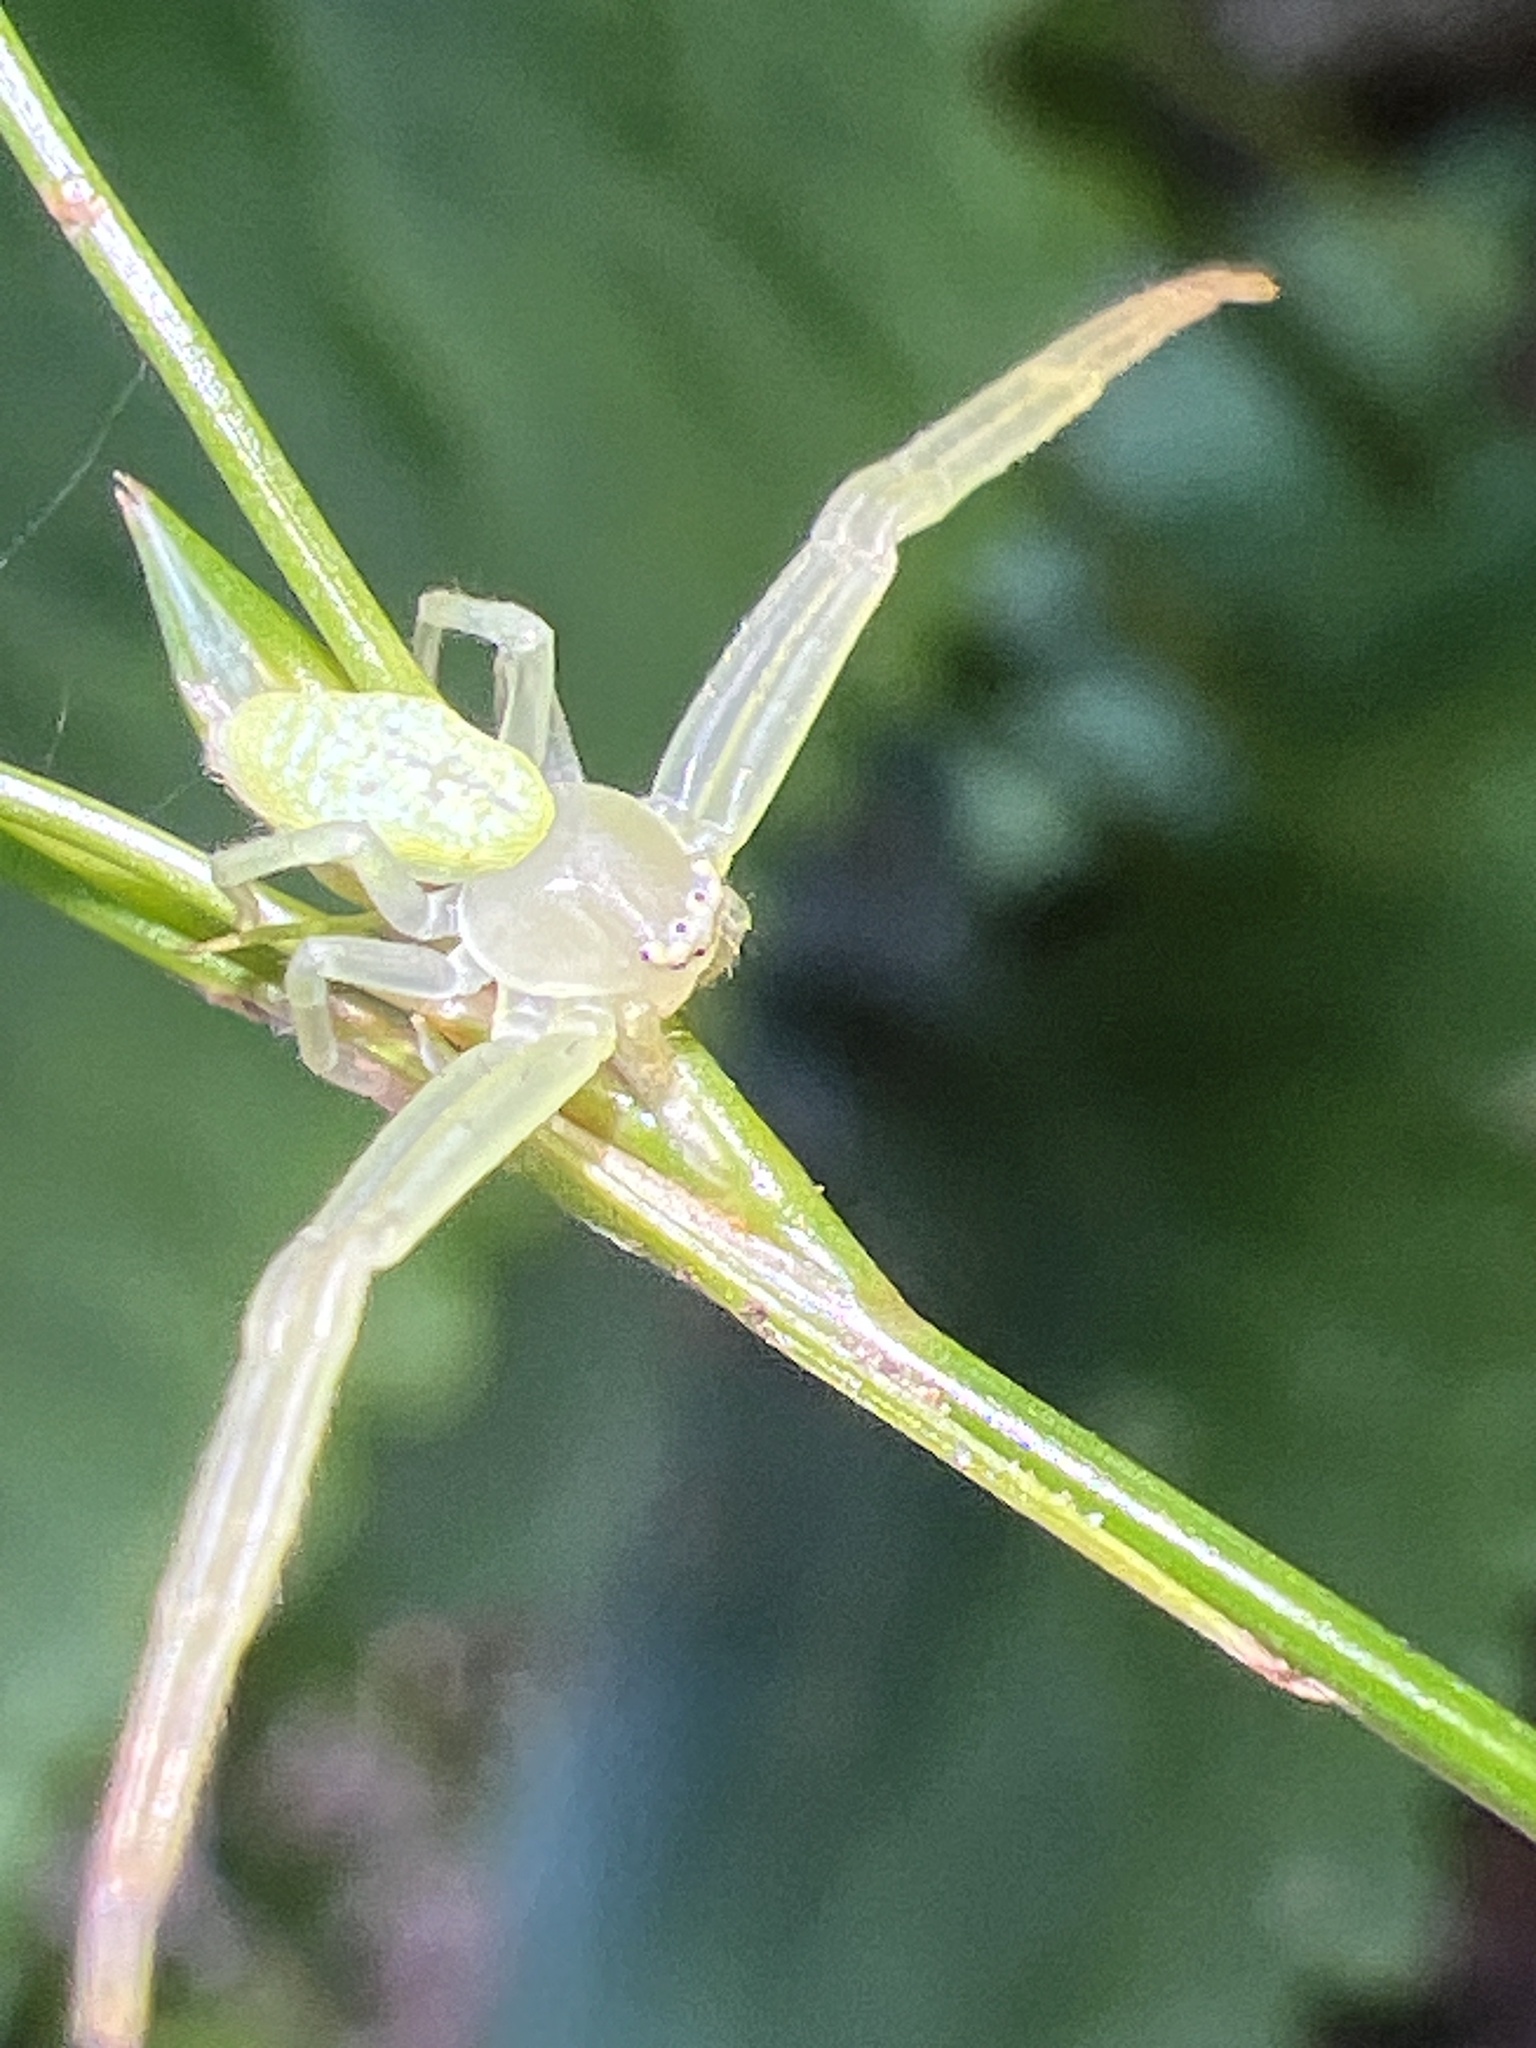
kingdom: Animalia
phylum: Arthropoda
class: Arachnida
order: Araneae
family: Thomisidae
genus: Misumessus
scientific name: Misumessus oblongus
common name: American green crab spider
